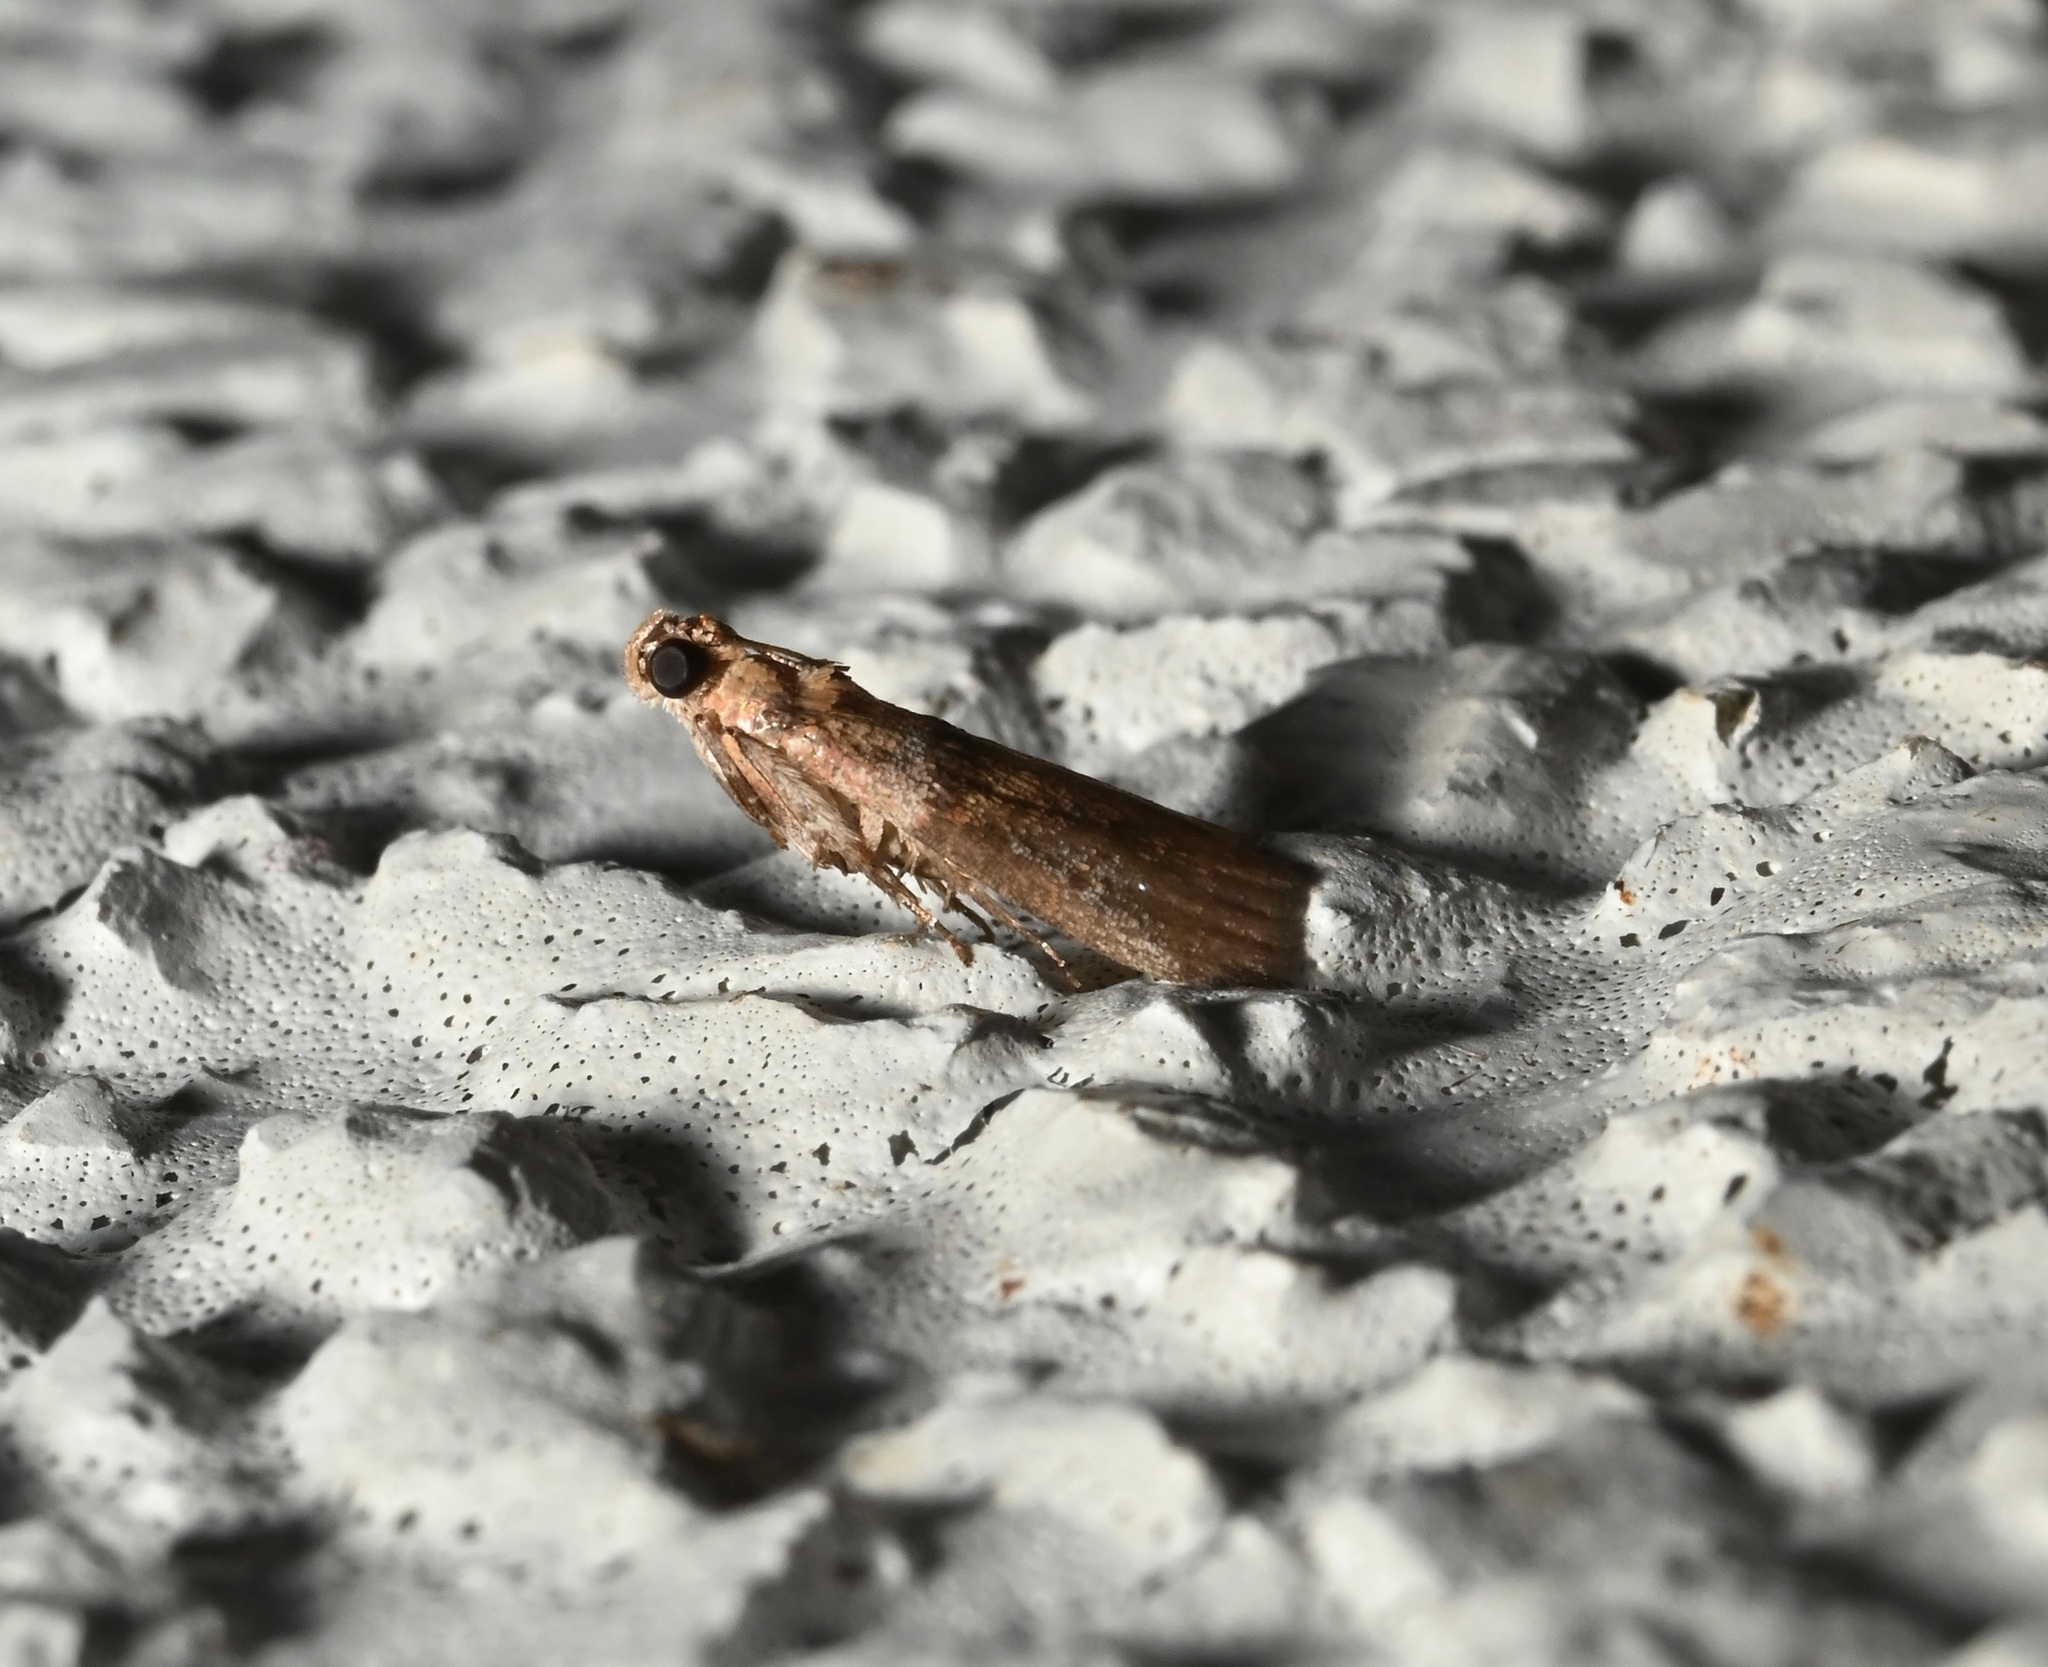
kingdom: Animalia
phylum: Arthropoda
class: Insecta
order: Lepidoptera
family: Pyralidae
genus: Addyme
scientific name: Addyme swinhoeella
